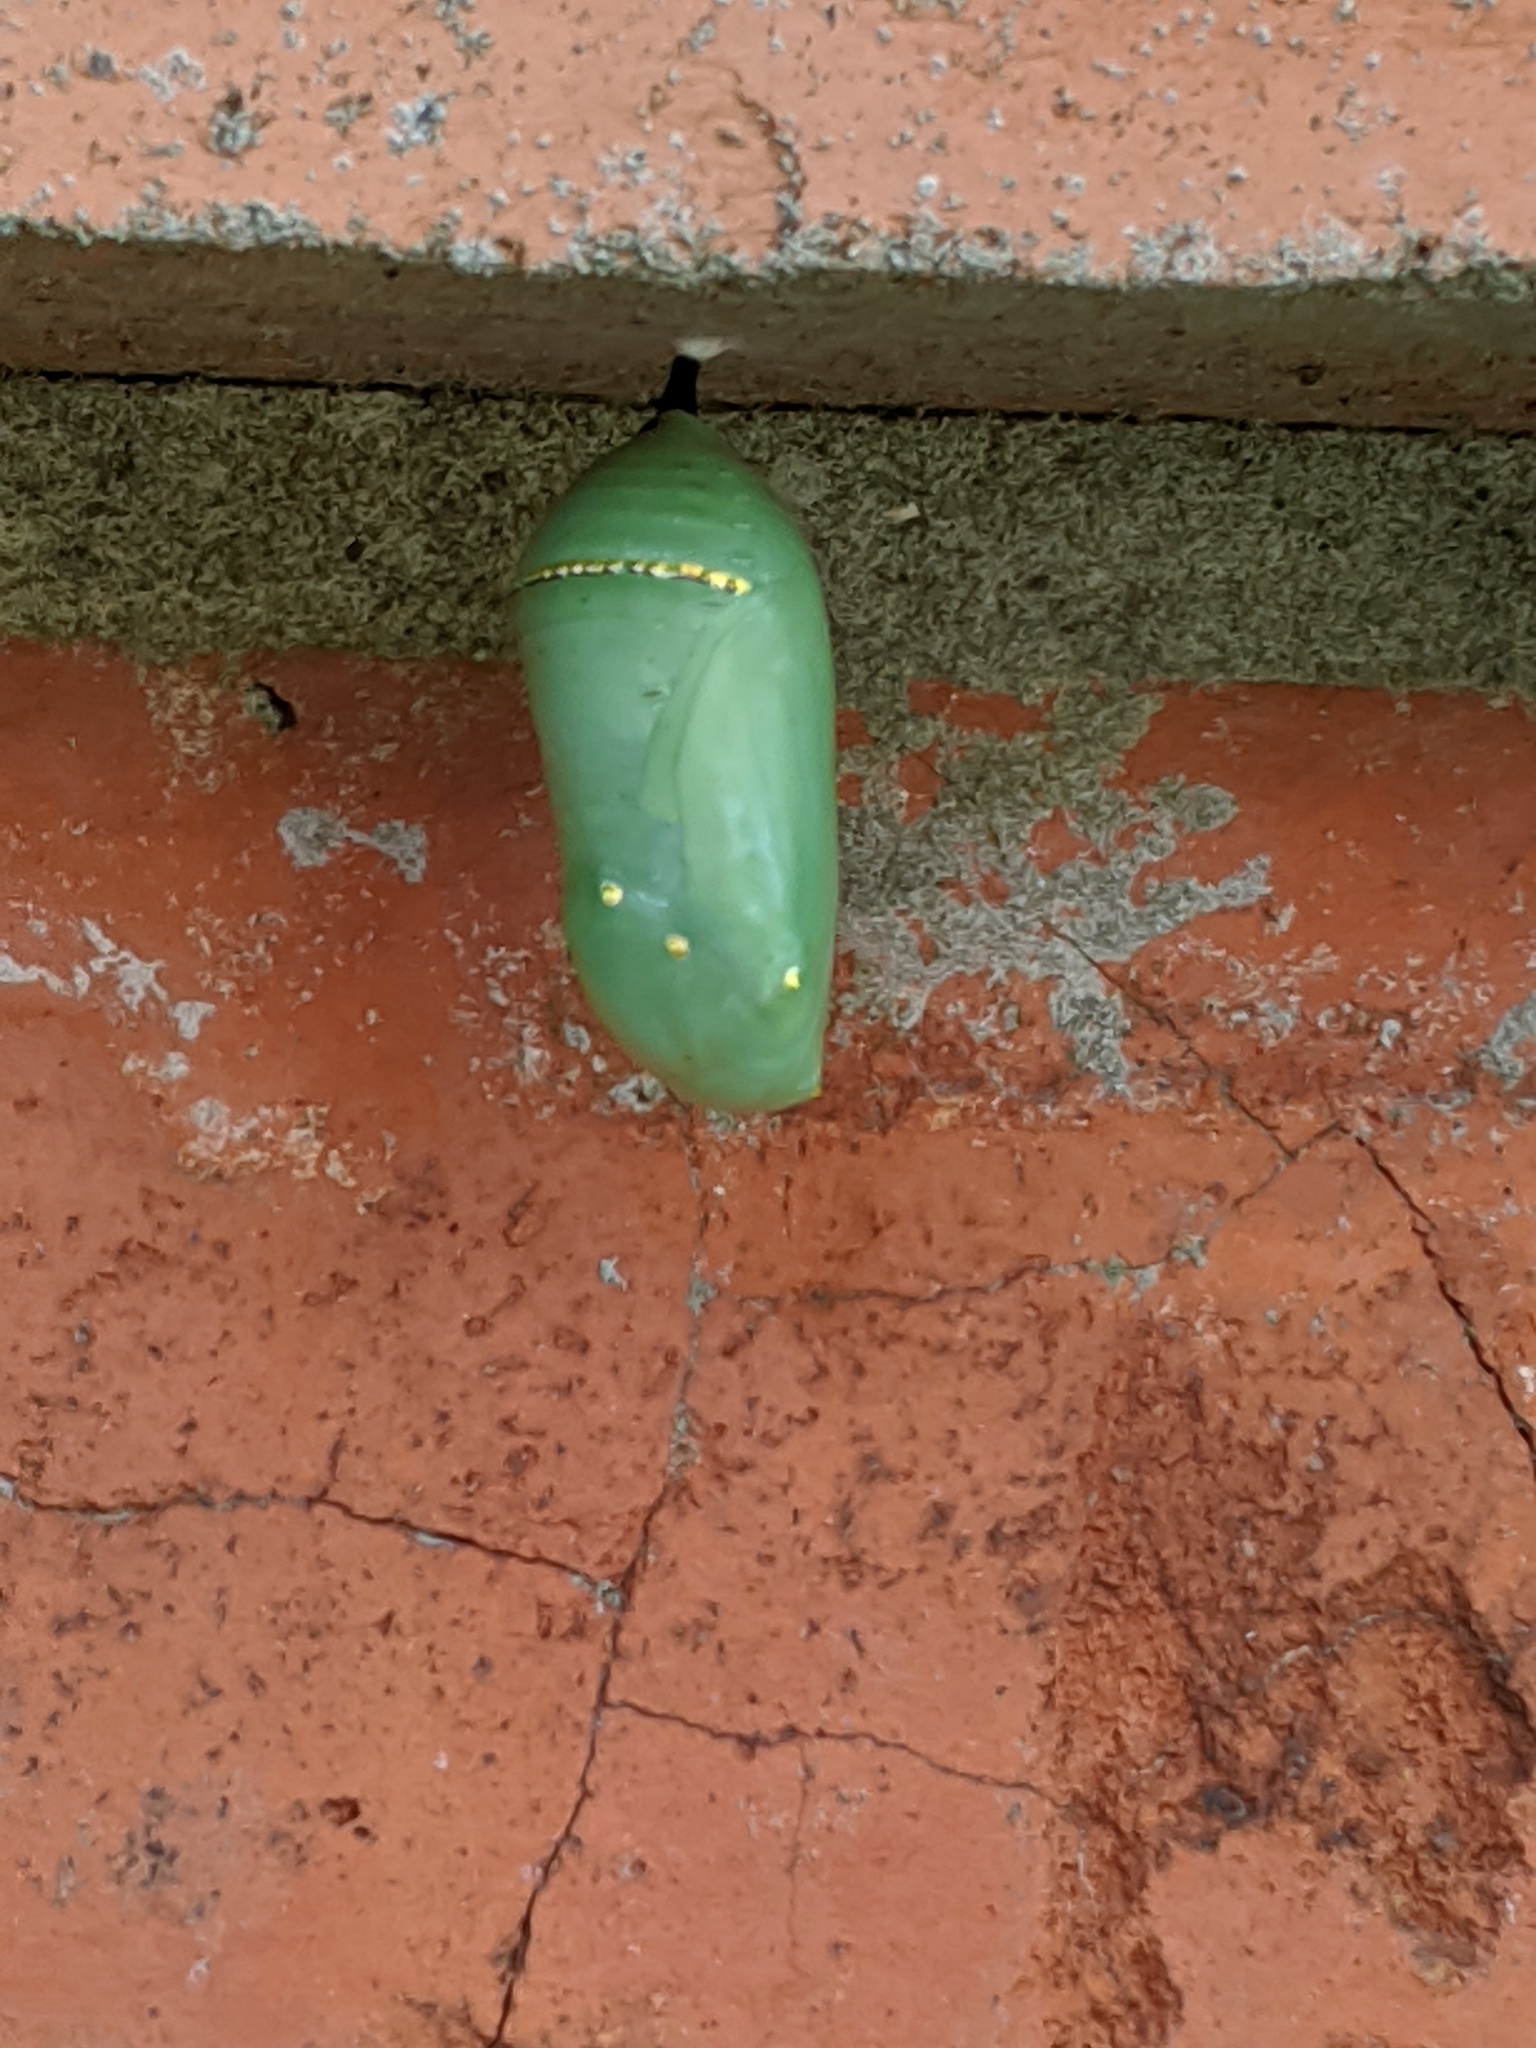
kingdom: Animalia
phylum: Arthropoda
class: Insecta
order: Lepidoptera
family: Nymphalidae
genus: Danaus
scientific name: Danaus plexippus
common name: Monarch
